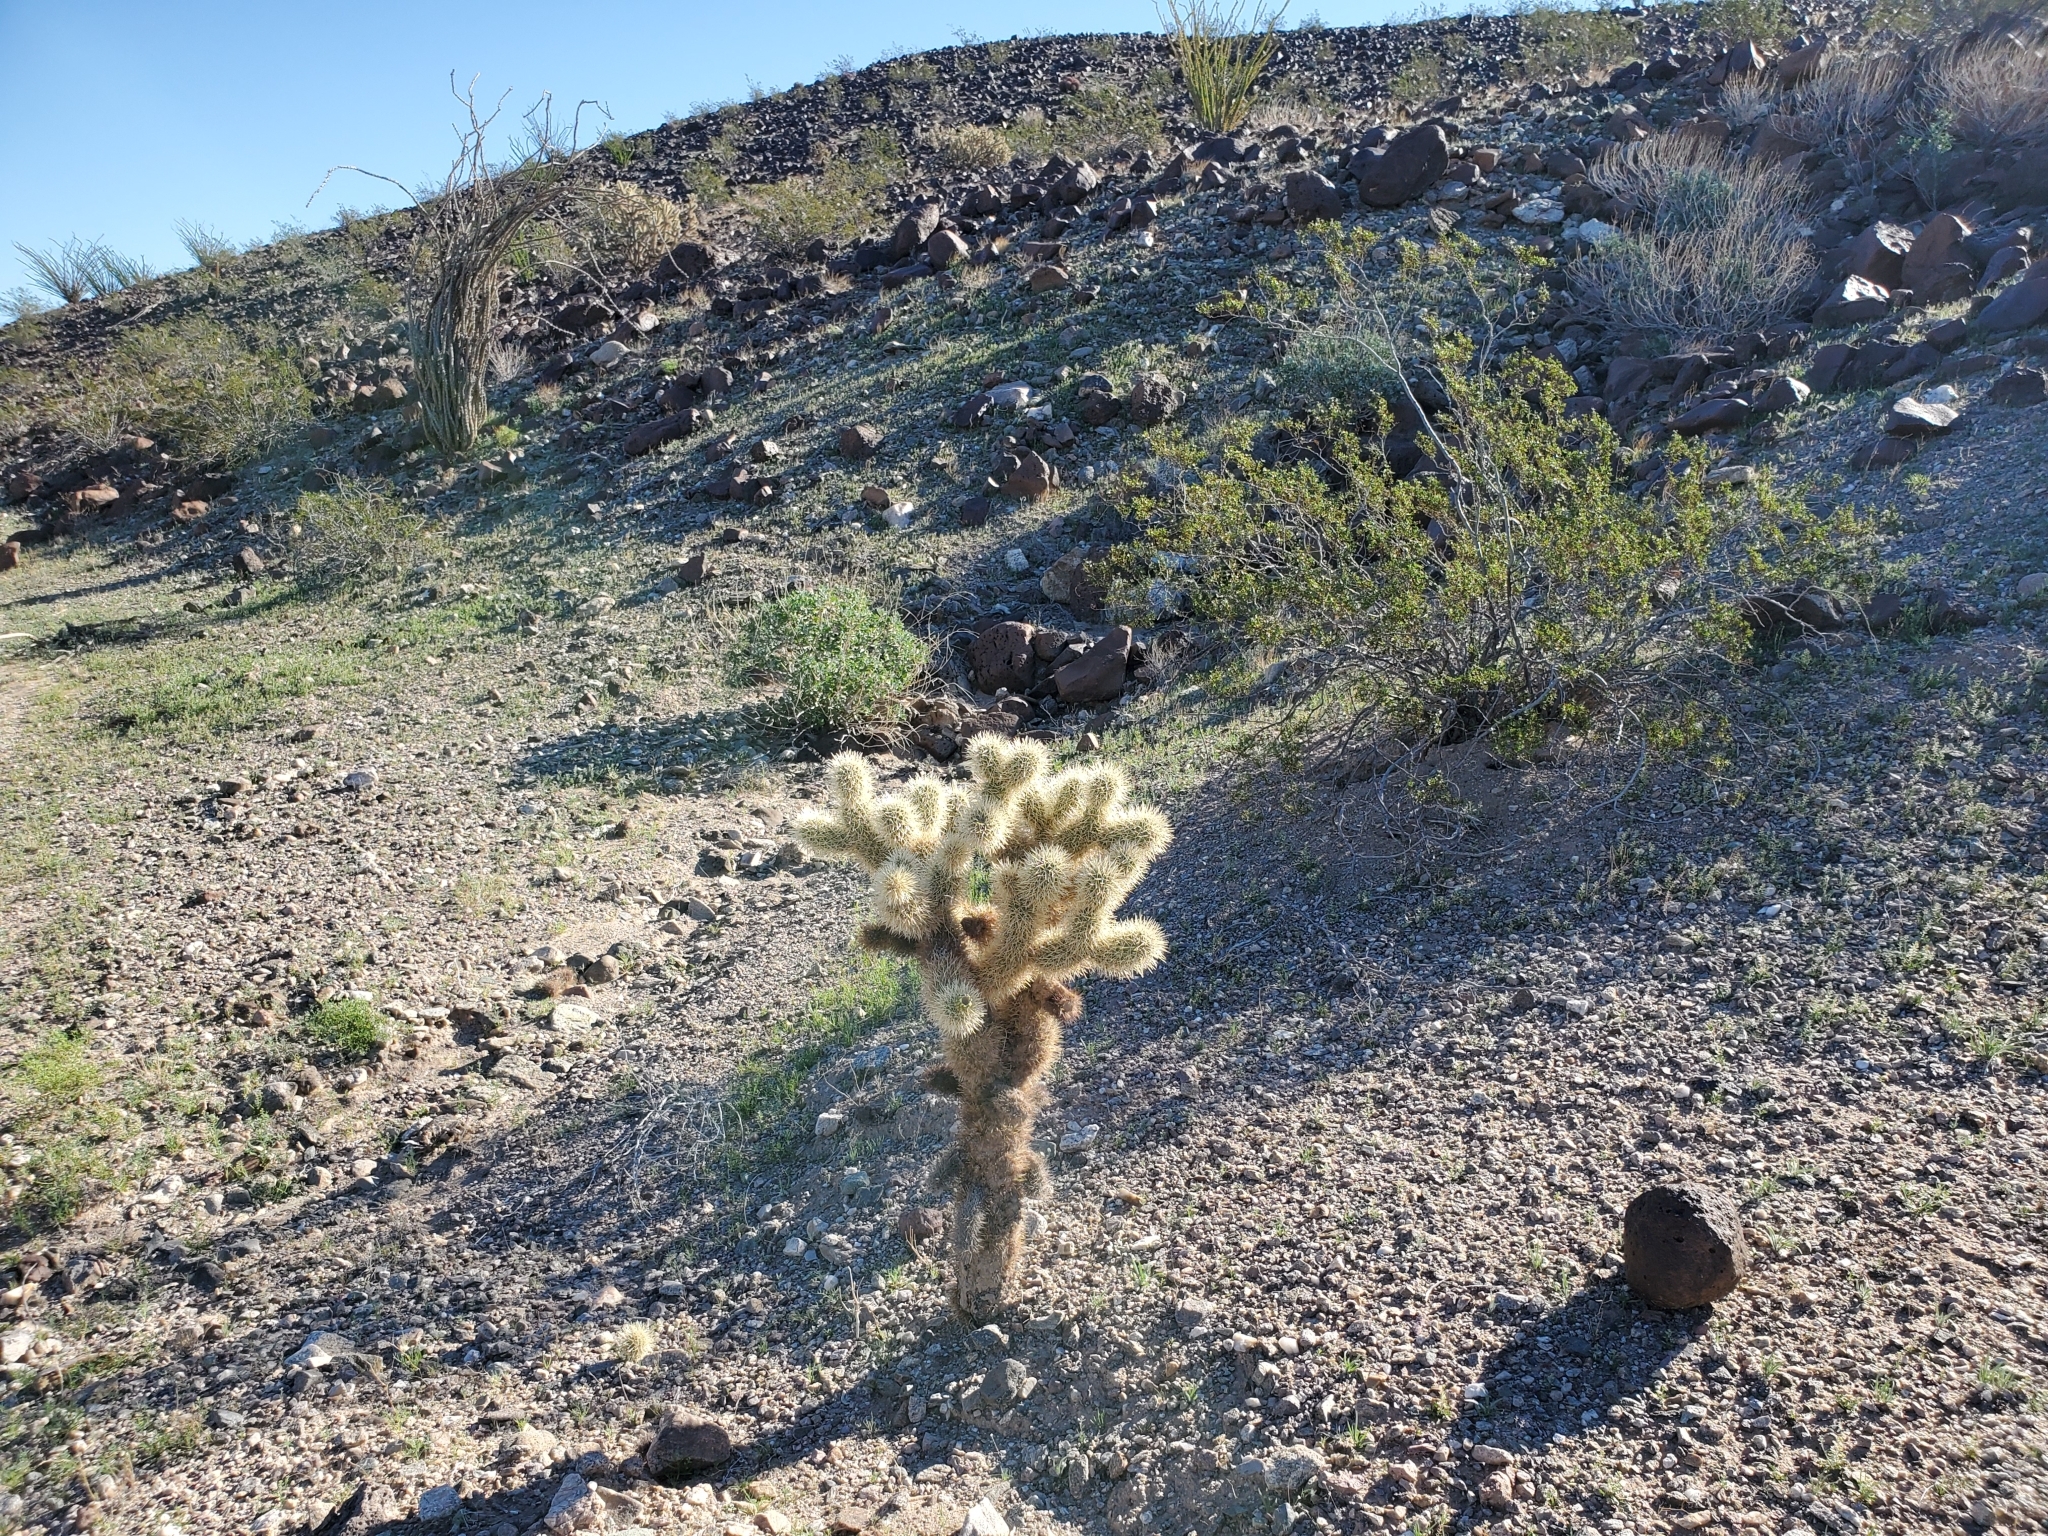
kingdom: Plantae
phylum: Tracheophyta
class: Magnoliopsida
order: Caryophyllales
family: Cactaceae
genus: Cylindropuntia
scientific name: Cylindropuntia fosbergii
